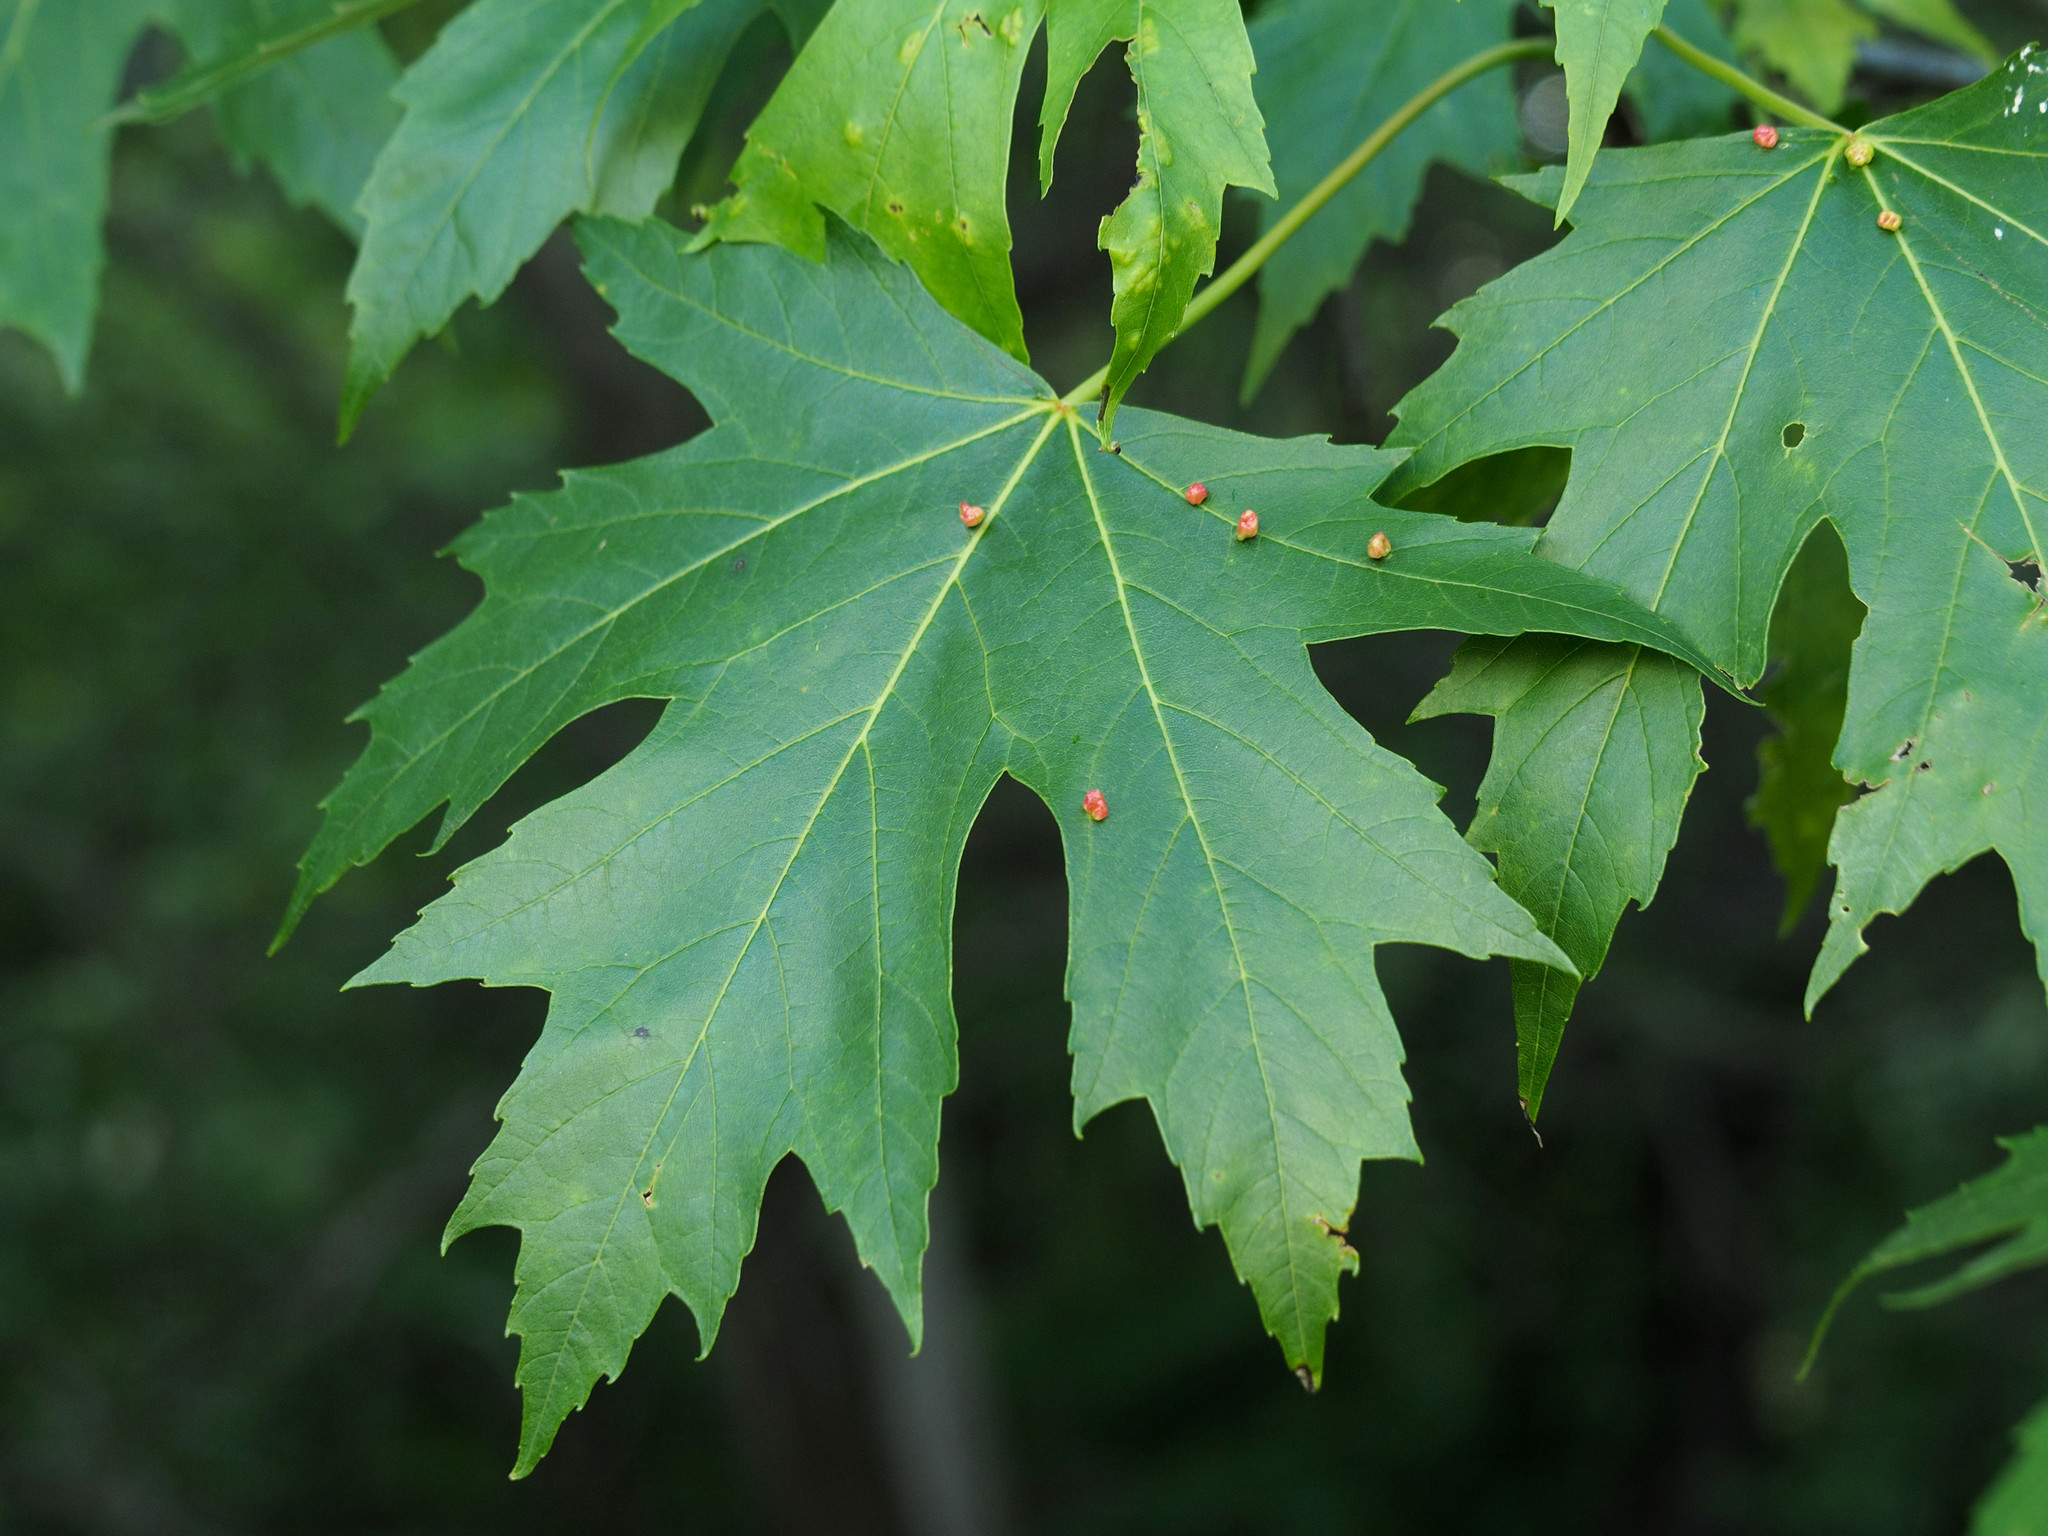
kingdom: Plantae
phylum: Tracheophyta
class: Magnoliopsida
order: Sapindales
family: Sapindaceae
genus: Acer
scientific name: Acer saccharinum
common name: Silver maple
